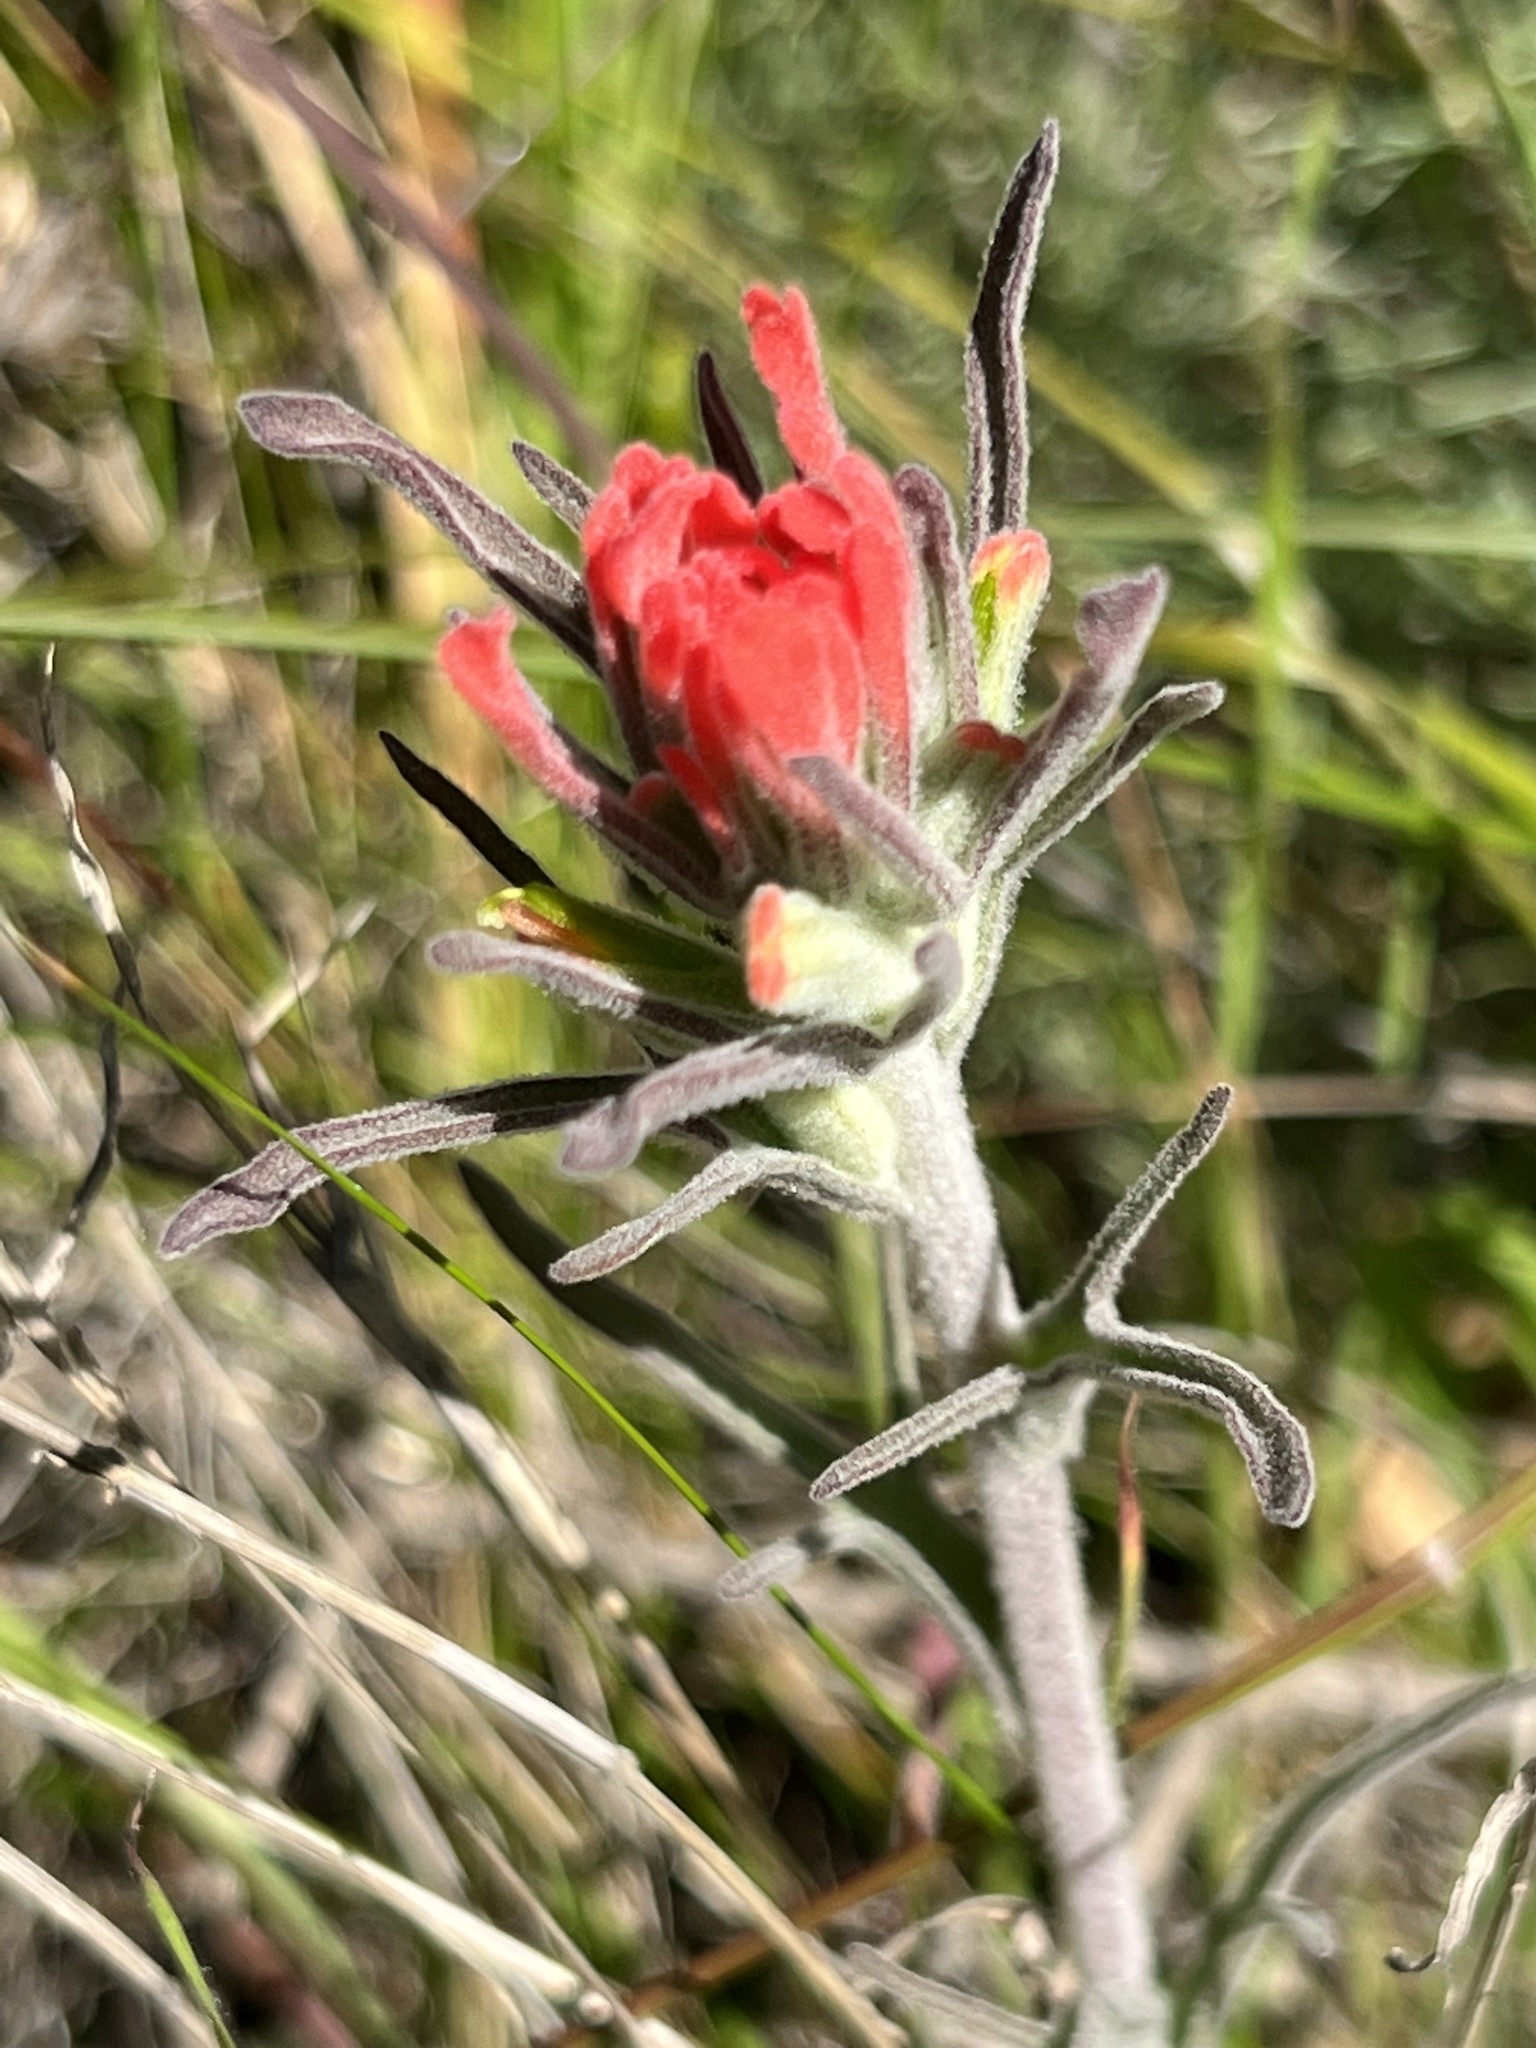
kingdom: Plantae
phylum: Tracheophyta
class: Magnoliopsida
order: Lamiales
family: Orobanchaceae
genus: Castilleja
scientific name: Castilleja foliolosa
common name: Woolly indian paintbrush
